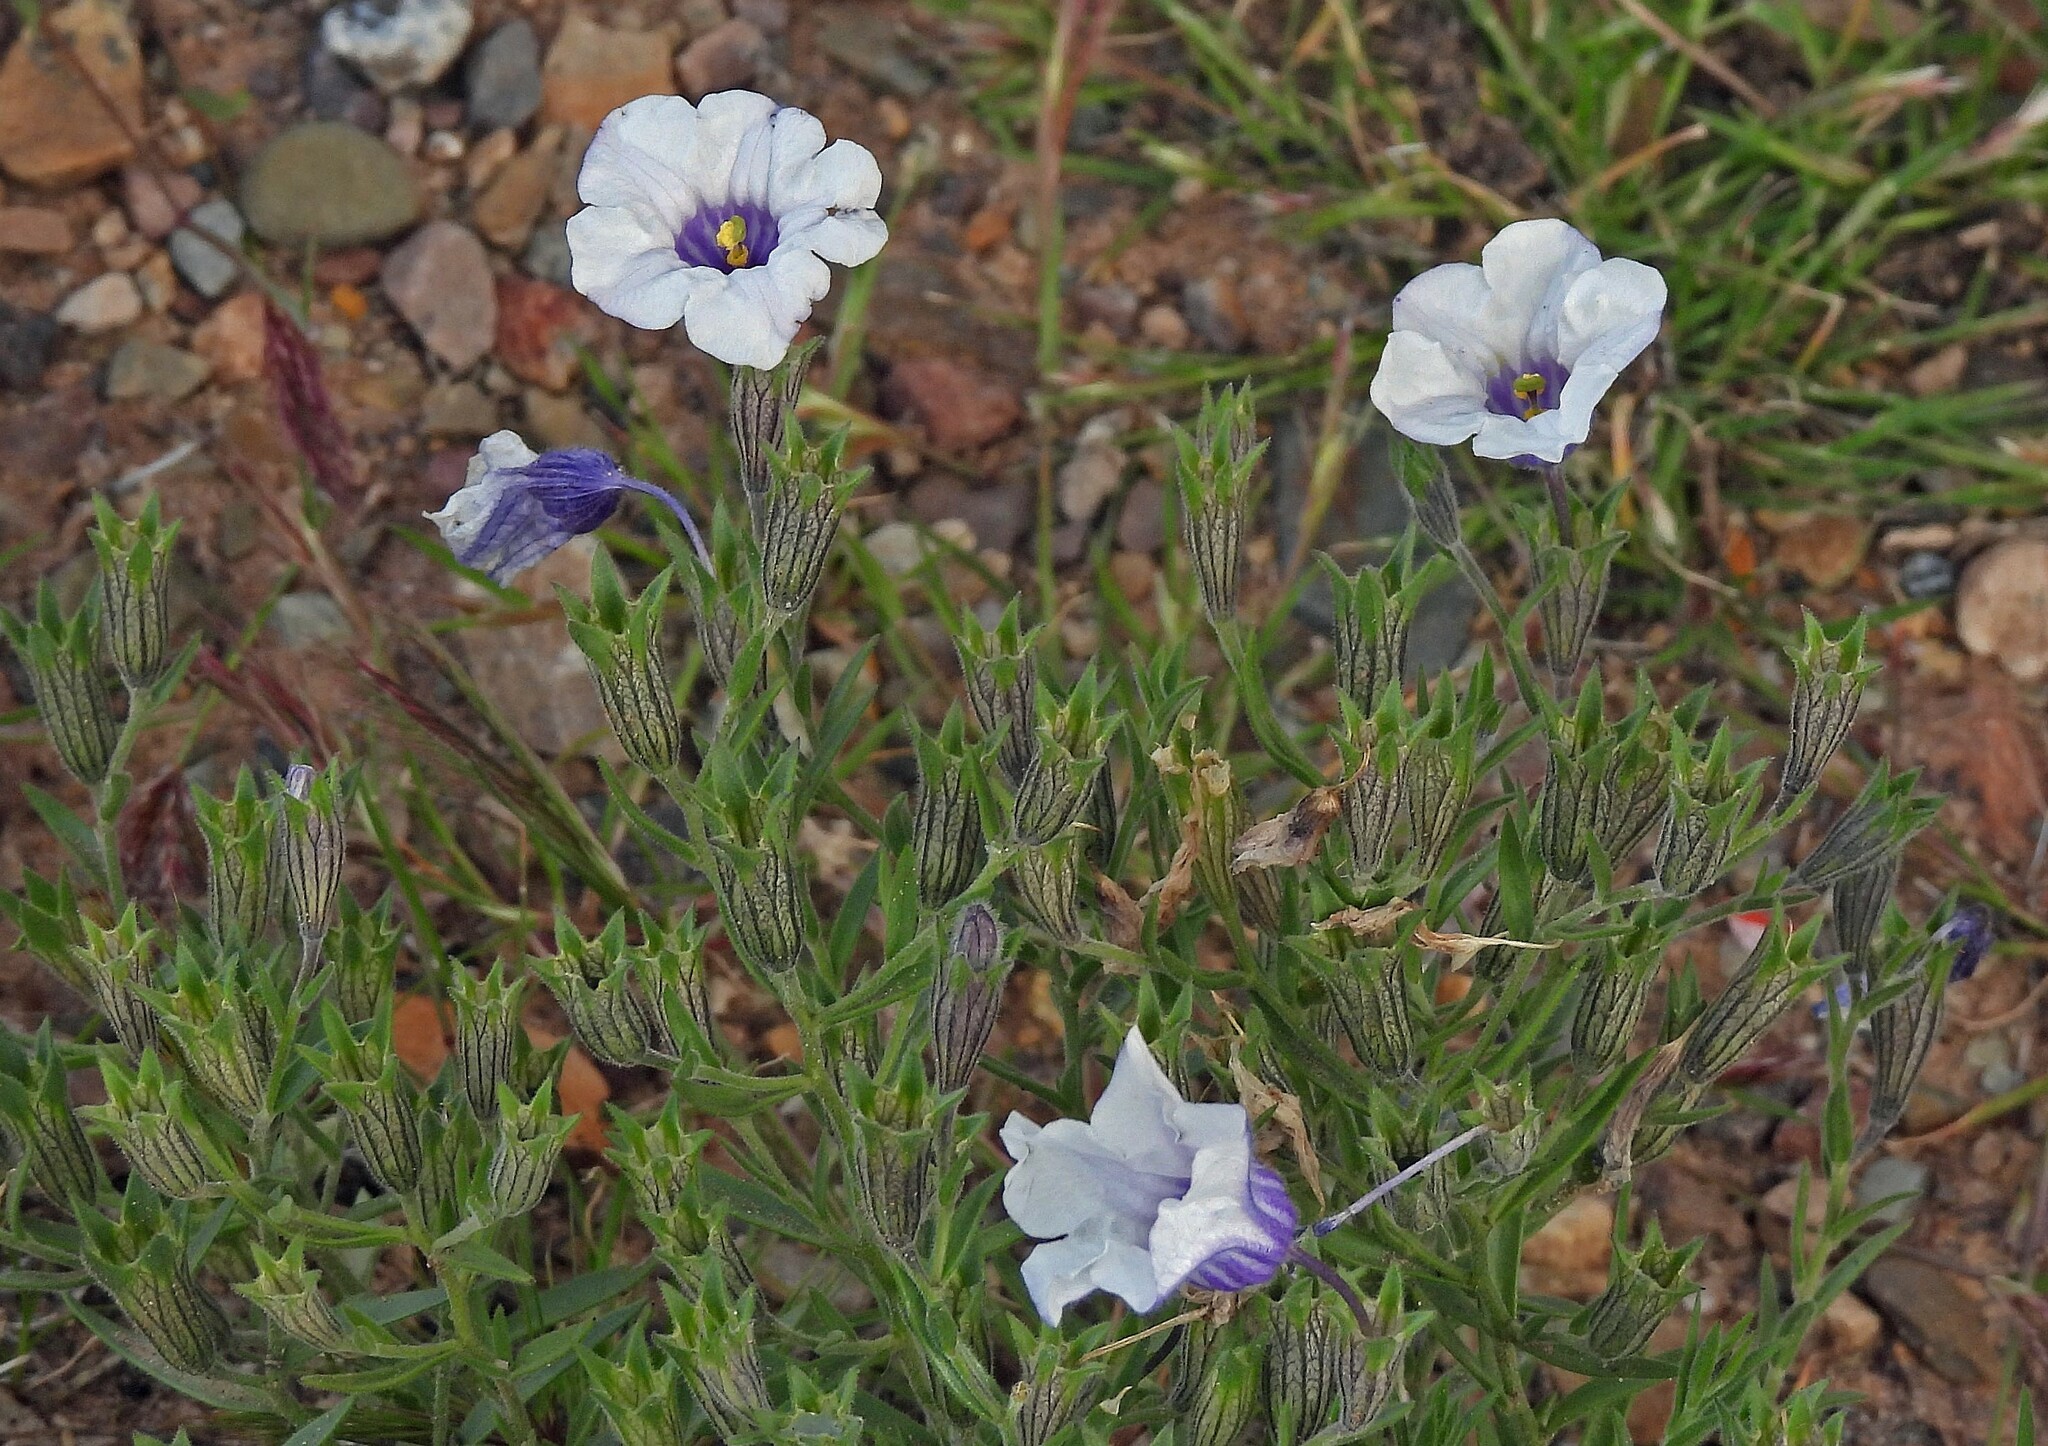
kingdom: Plantae
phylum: Tracheophyta
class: Magnoliopsida
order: Solanales
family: Solanaceae
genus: Nierembergia
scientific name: Nierembergia pulchella
